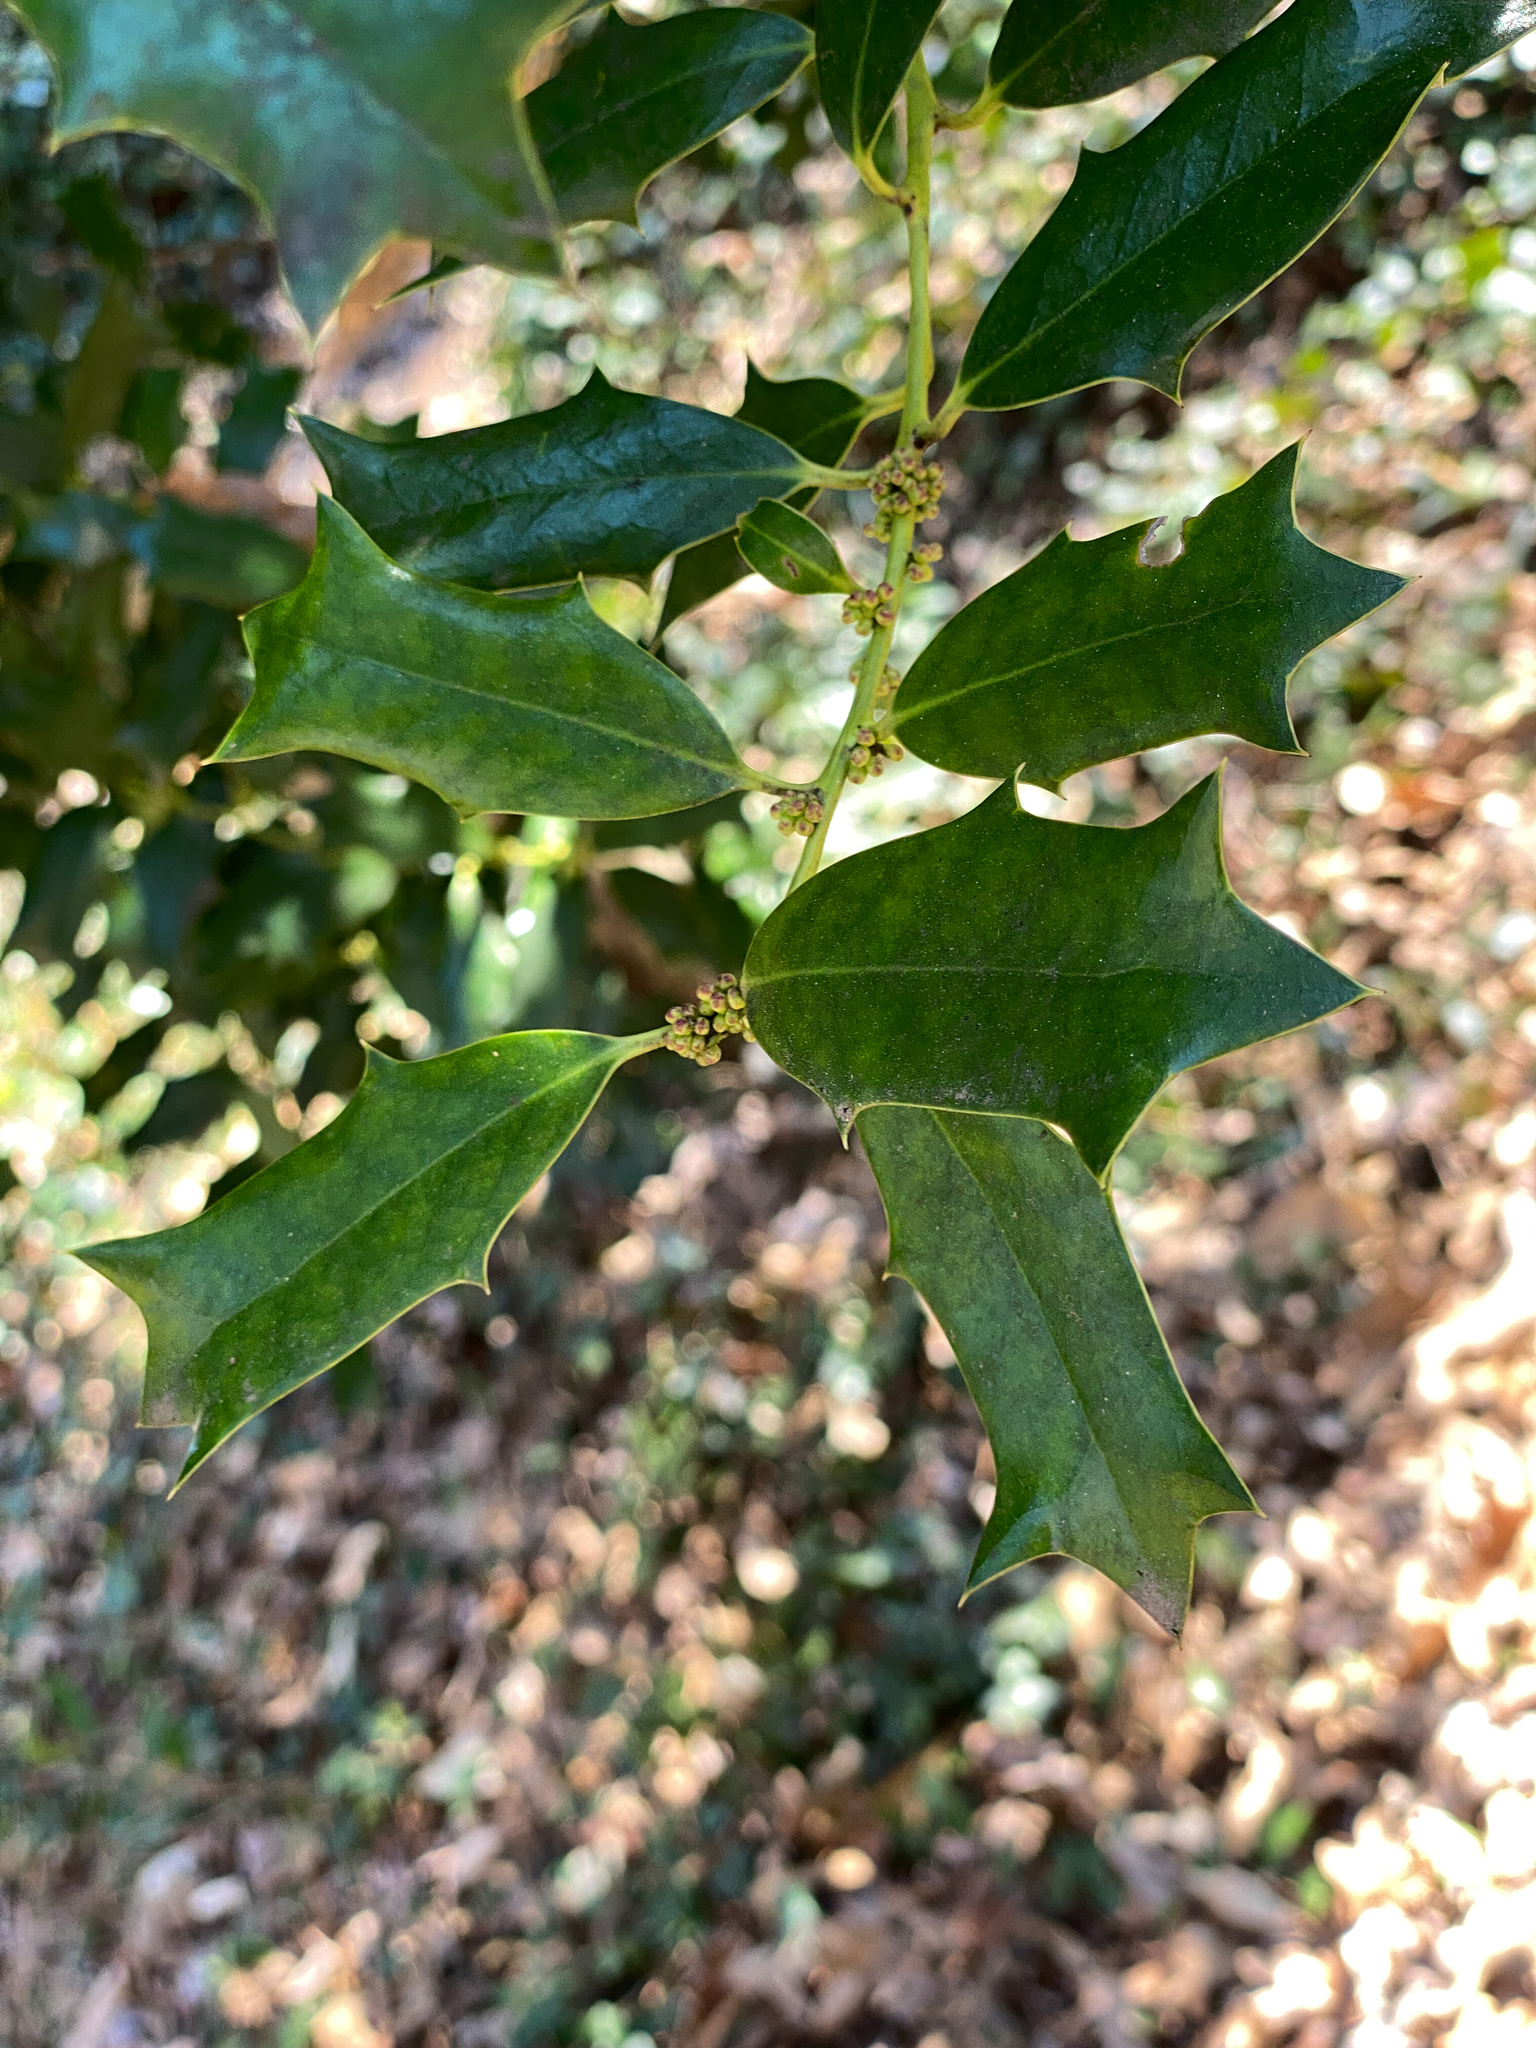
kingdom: Plantae
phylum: Tracheophyta
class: Magnoliopsida
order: Aquifoliales
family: Aquifoliaceae
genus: Ilex
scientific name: Ilex cornuta
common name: Chinese holly
